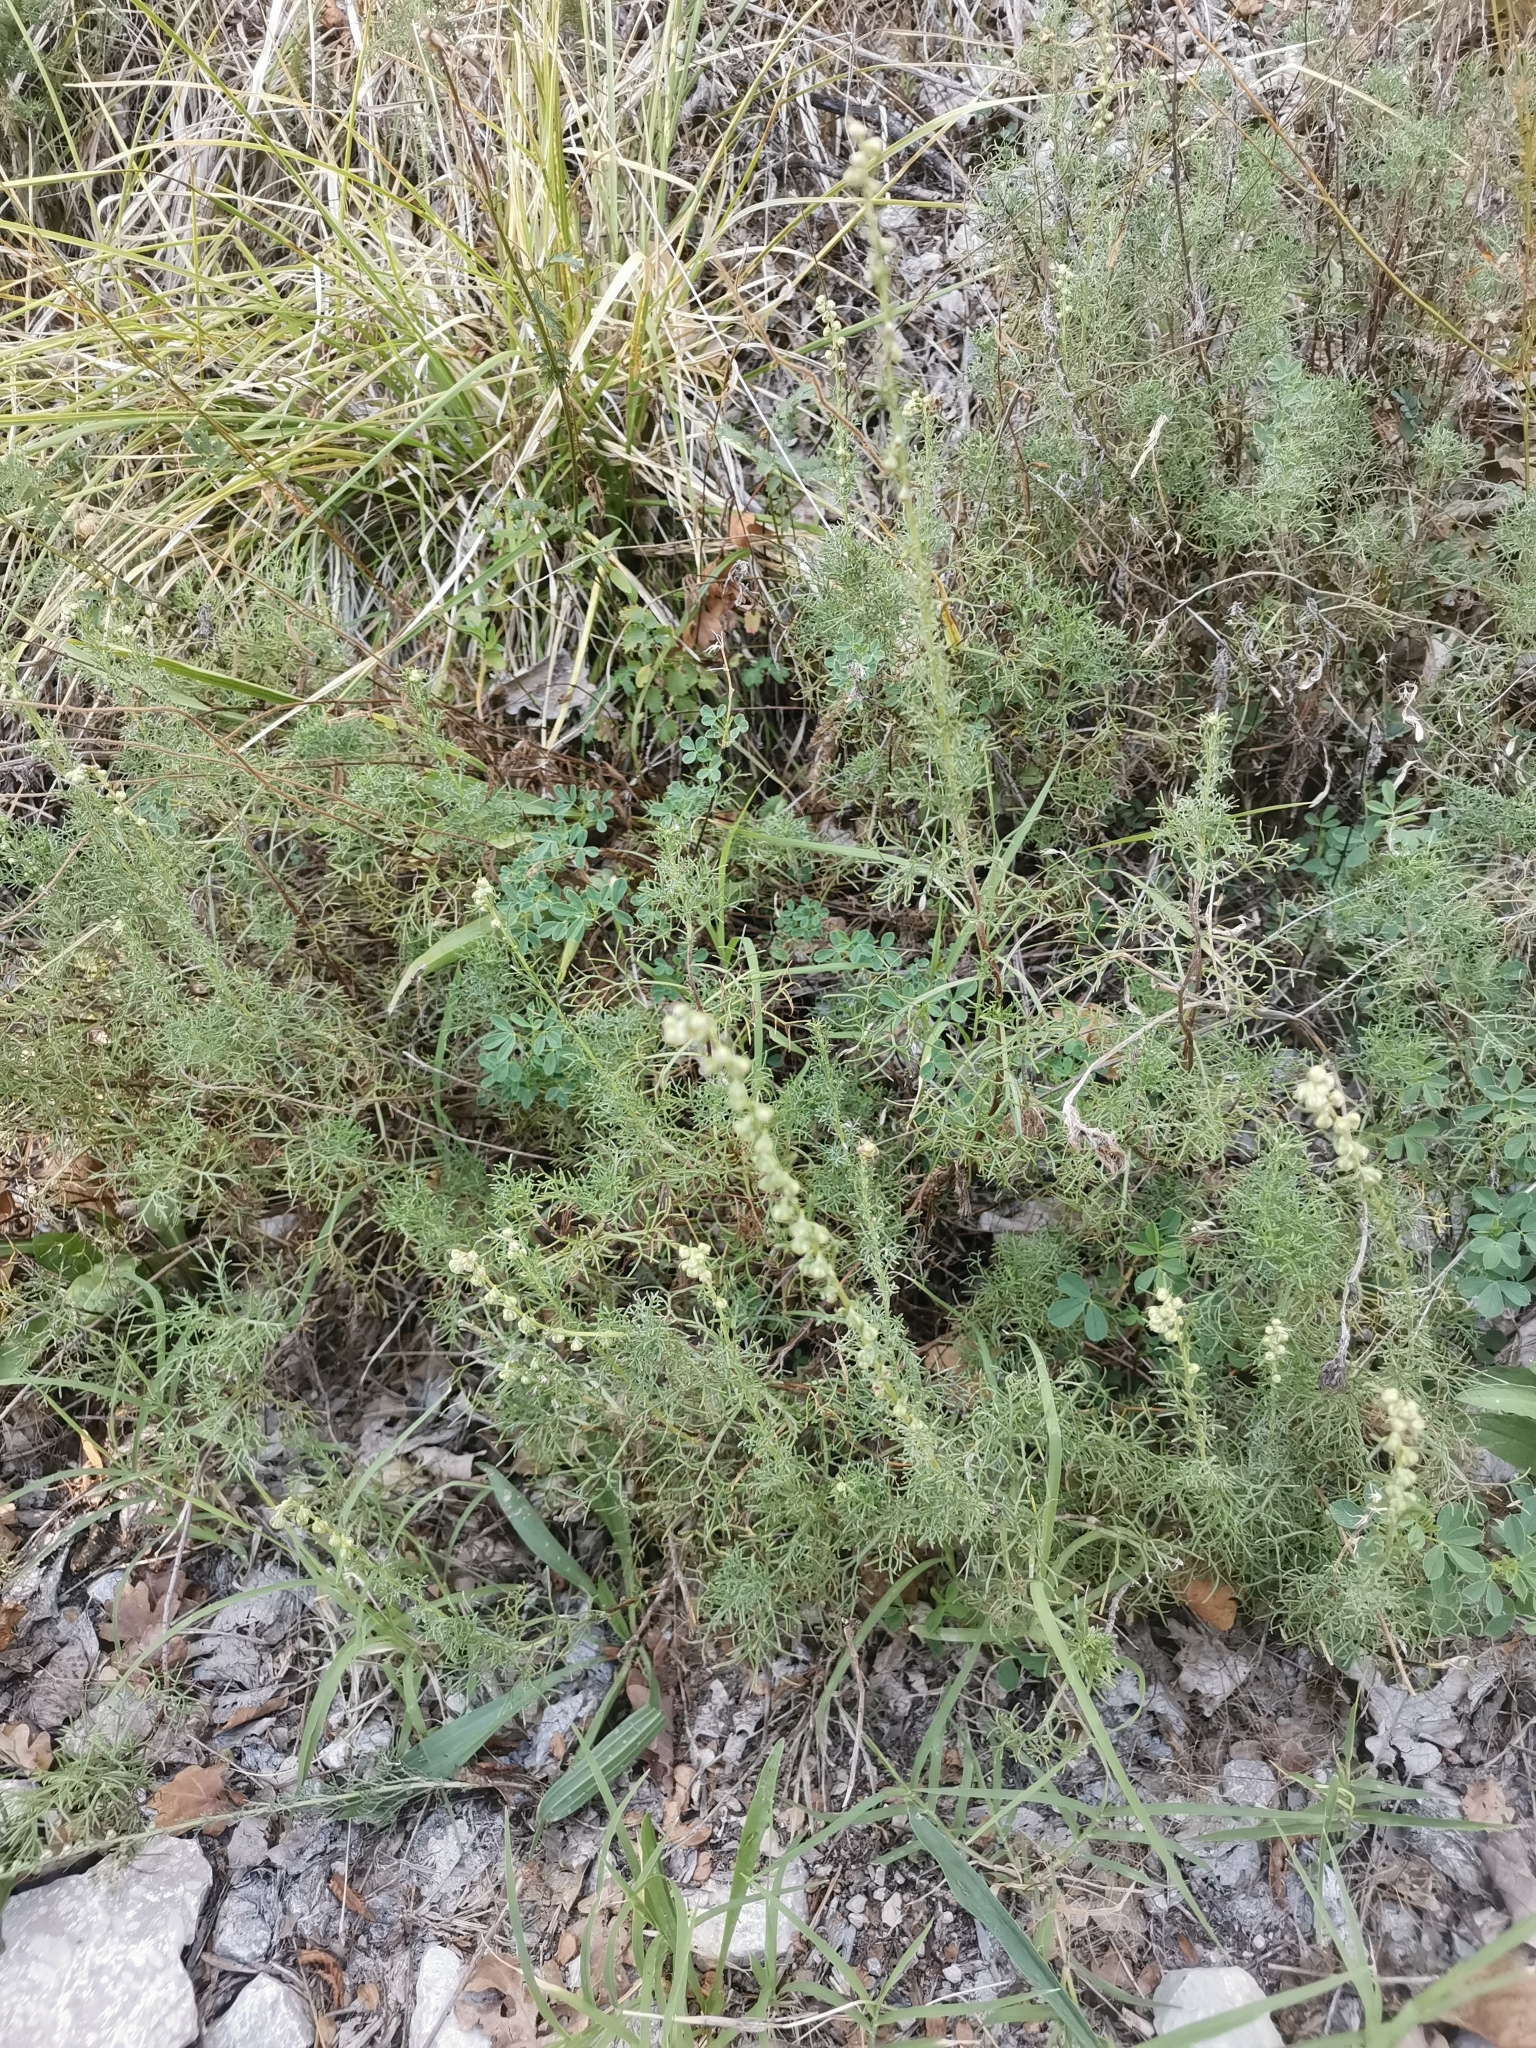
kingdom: Plantae
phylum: Tracheophyta
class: Magnoliopsida
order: Asterales
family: Asteraceae
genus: Artemisia
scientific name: Artemisia alba
